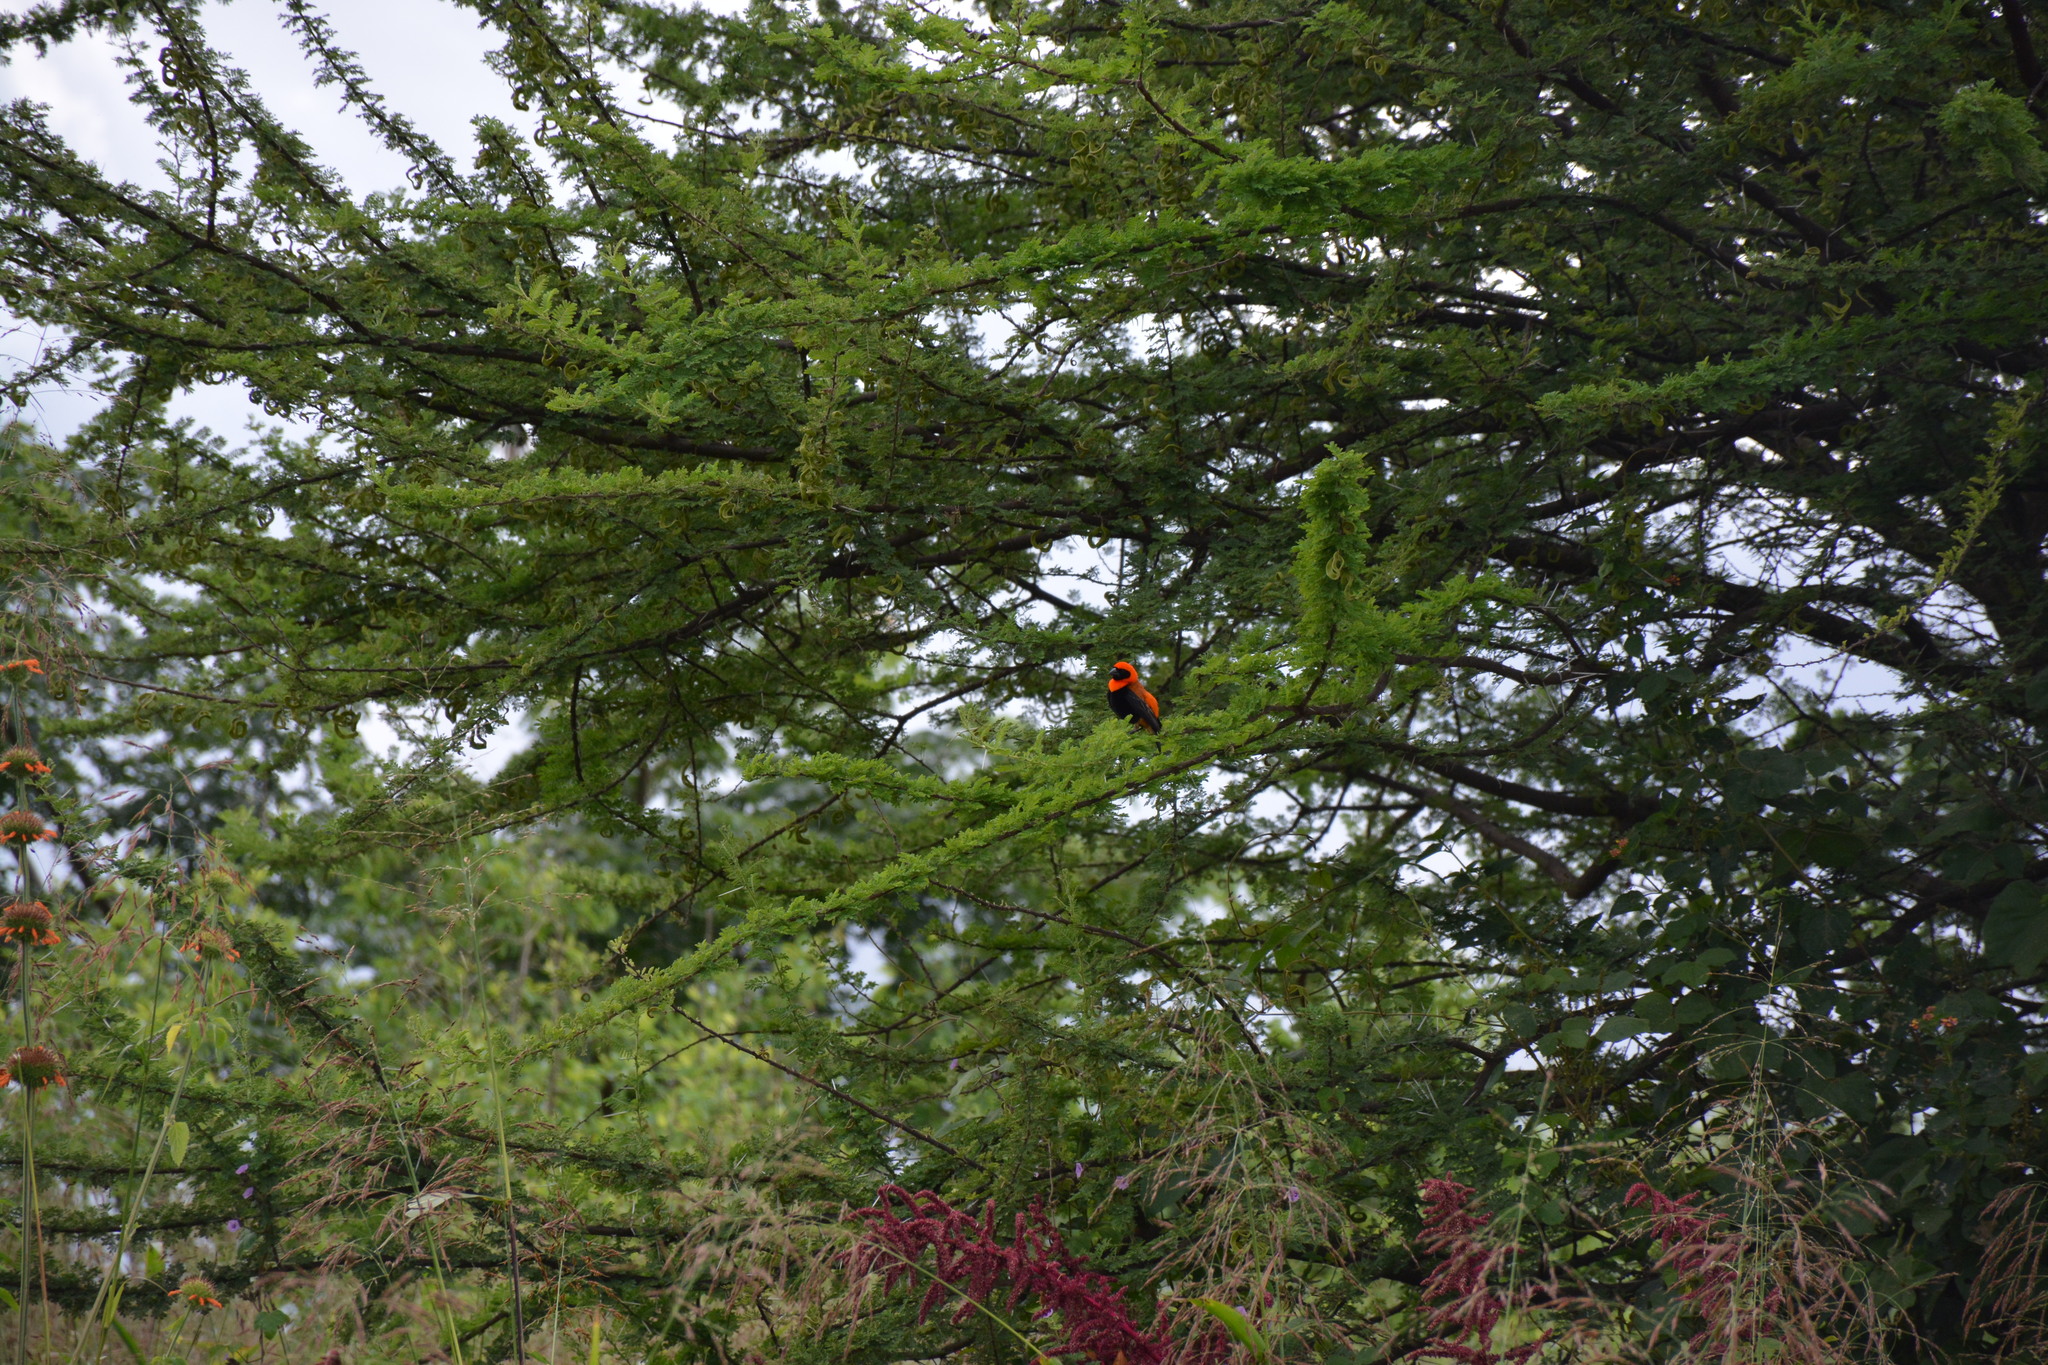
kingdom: Animalia
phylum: Chordata
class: Aves
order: Passeriformes
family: Ploceidae
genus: Euplectes
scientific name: Euplectes hordeaceus
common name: Black-winged red bishop
